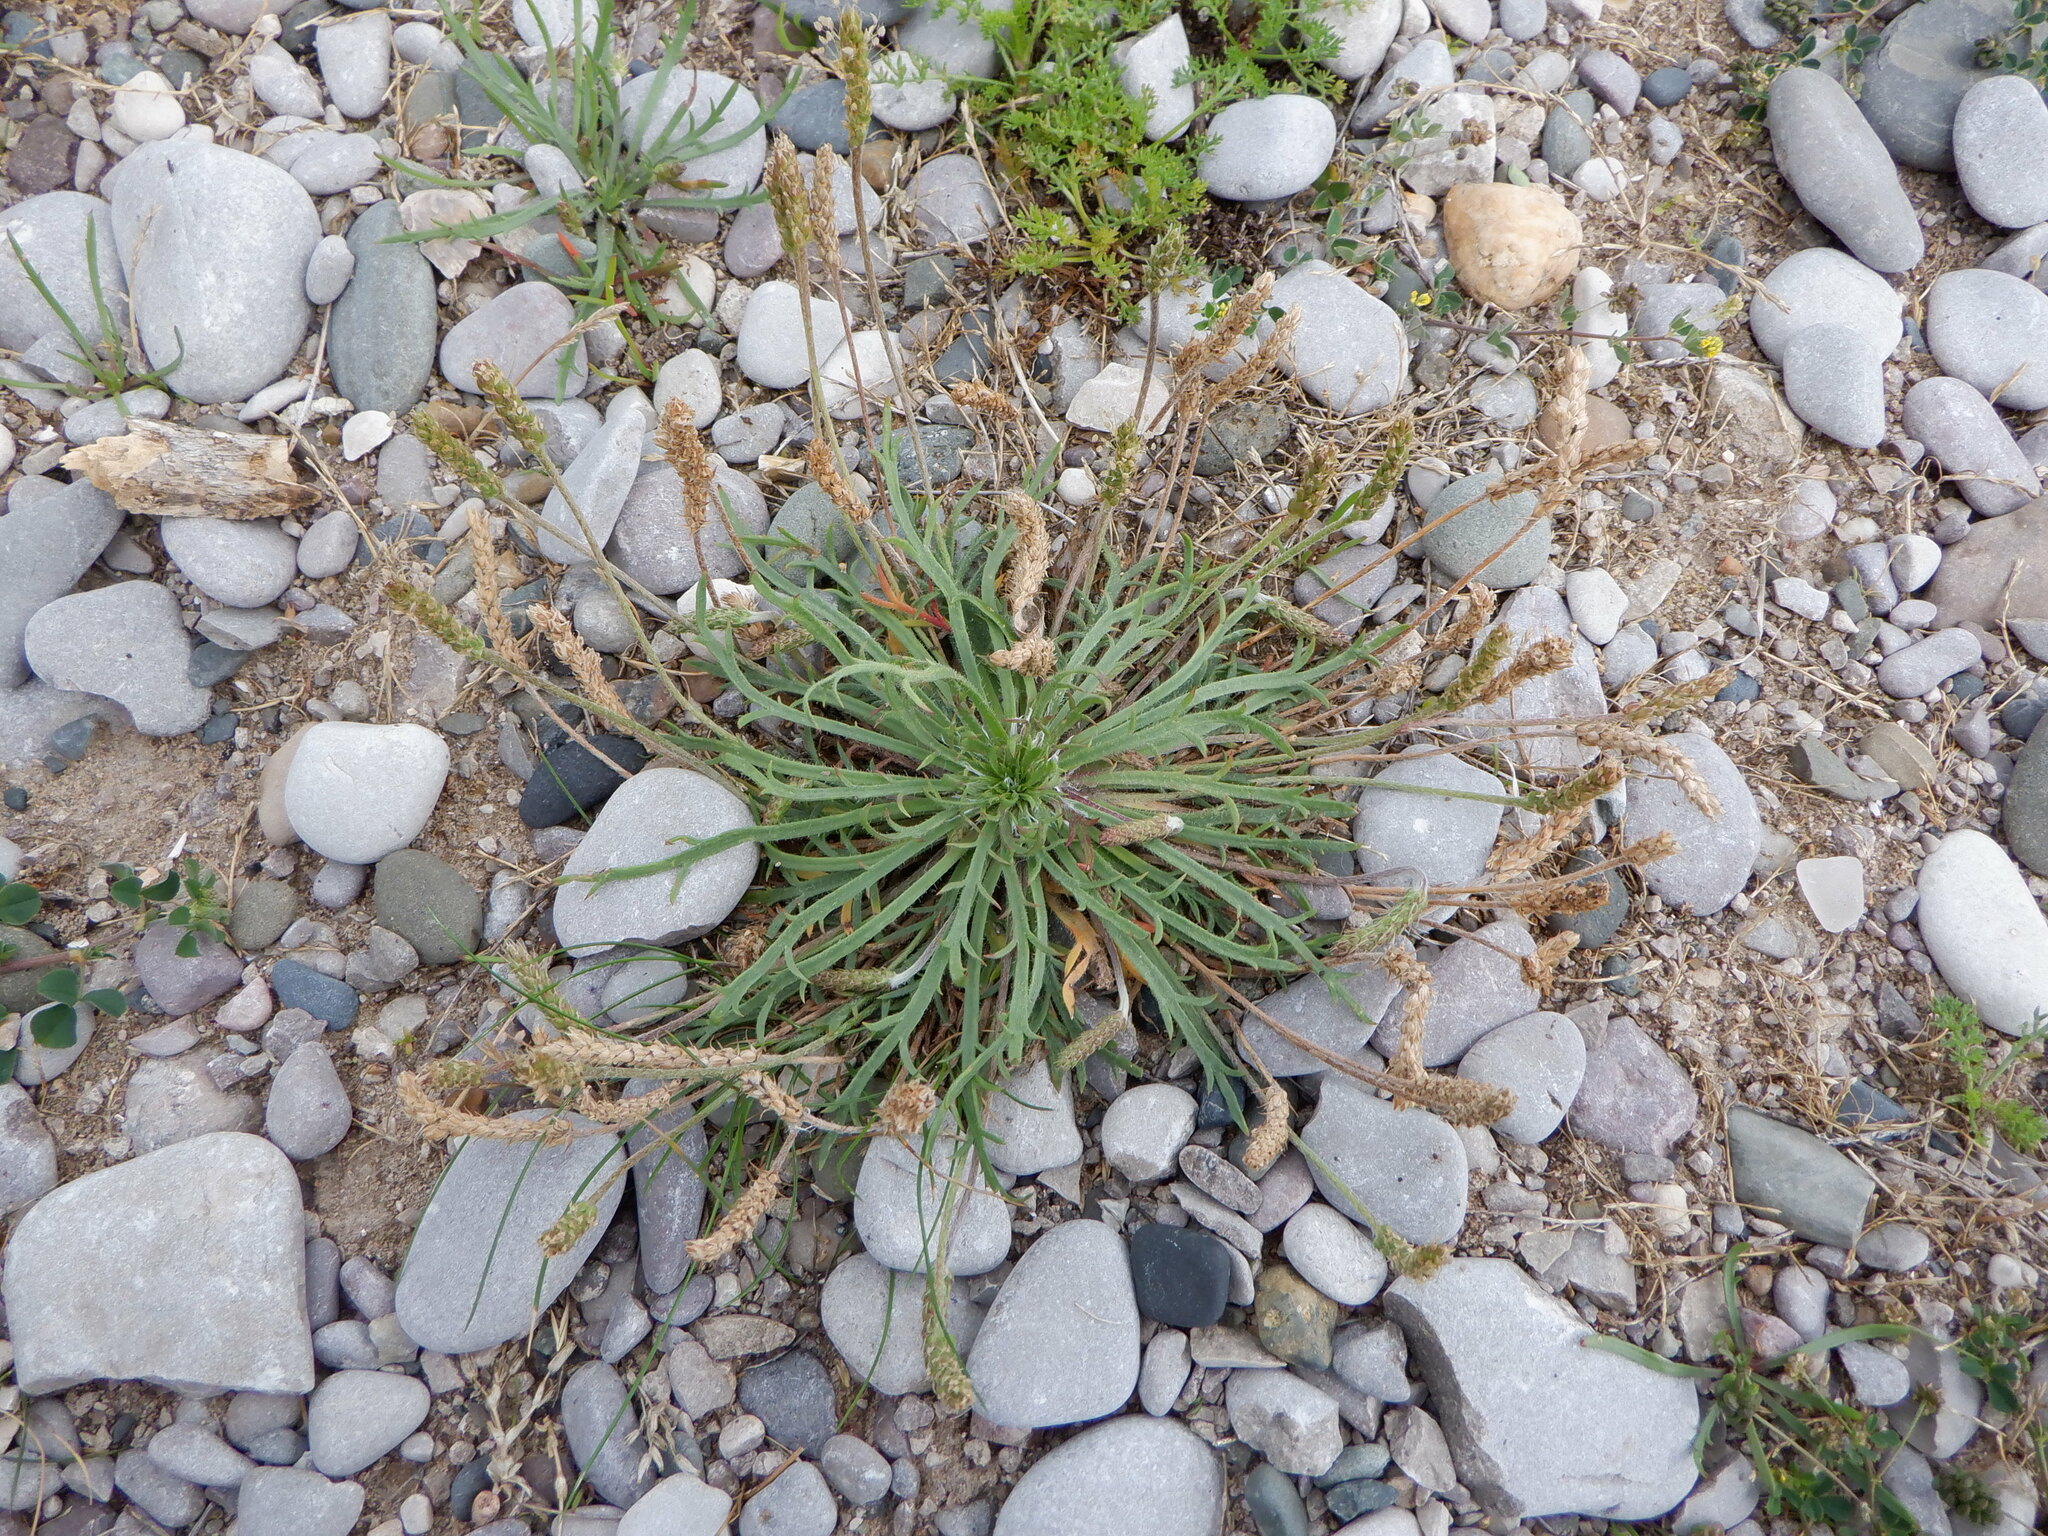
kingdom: Plantae
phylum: Tracheophyta
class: Magnoliopsida
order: Lamiales
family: Plantaginaceae
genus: Plantago
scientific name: Plantago coronopus
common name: Buck's-horn plantain
